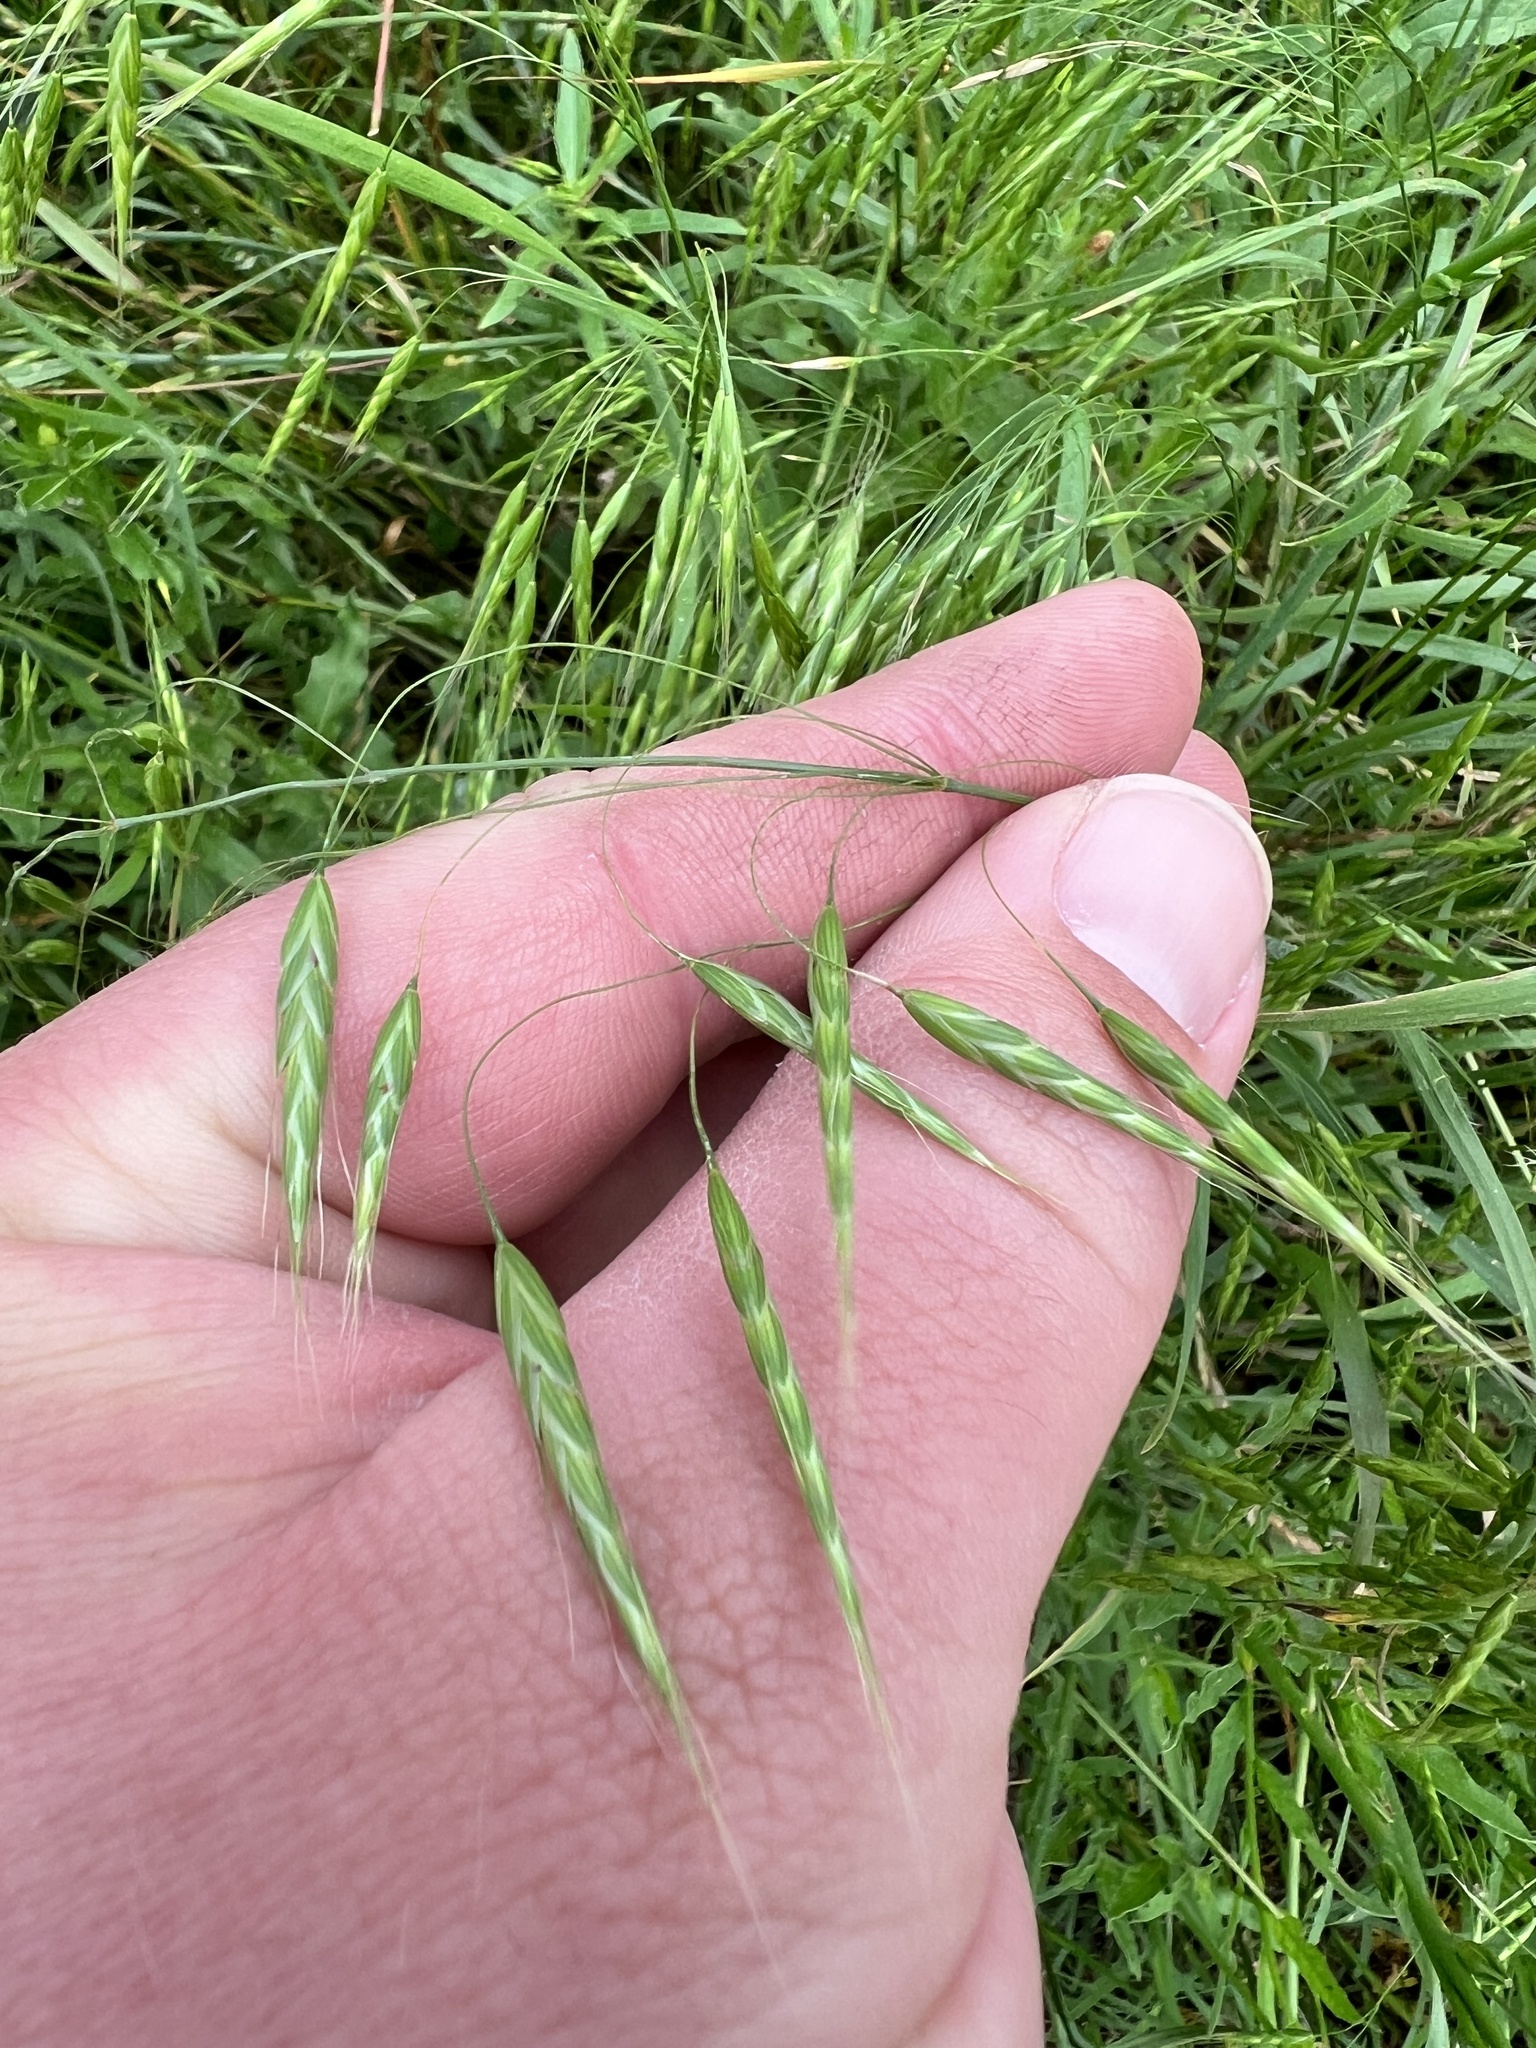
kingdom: Plantae
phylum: Tracheophyta
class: Liliopsida
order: Poales
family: Poaceae
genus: Bromus
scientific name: Bromus japonicus
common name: Japanese brome
